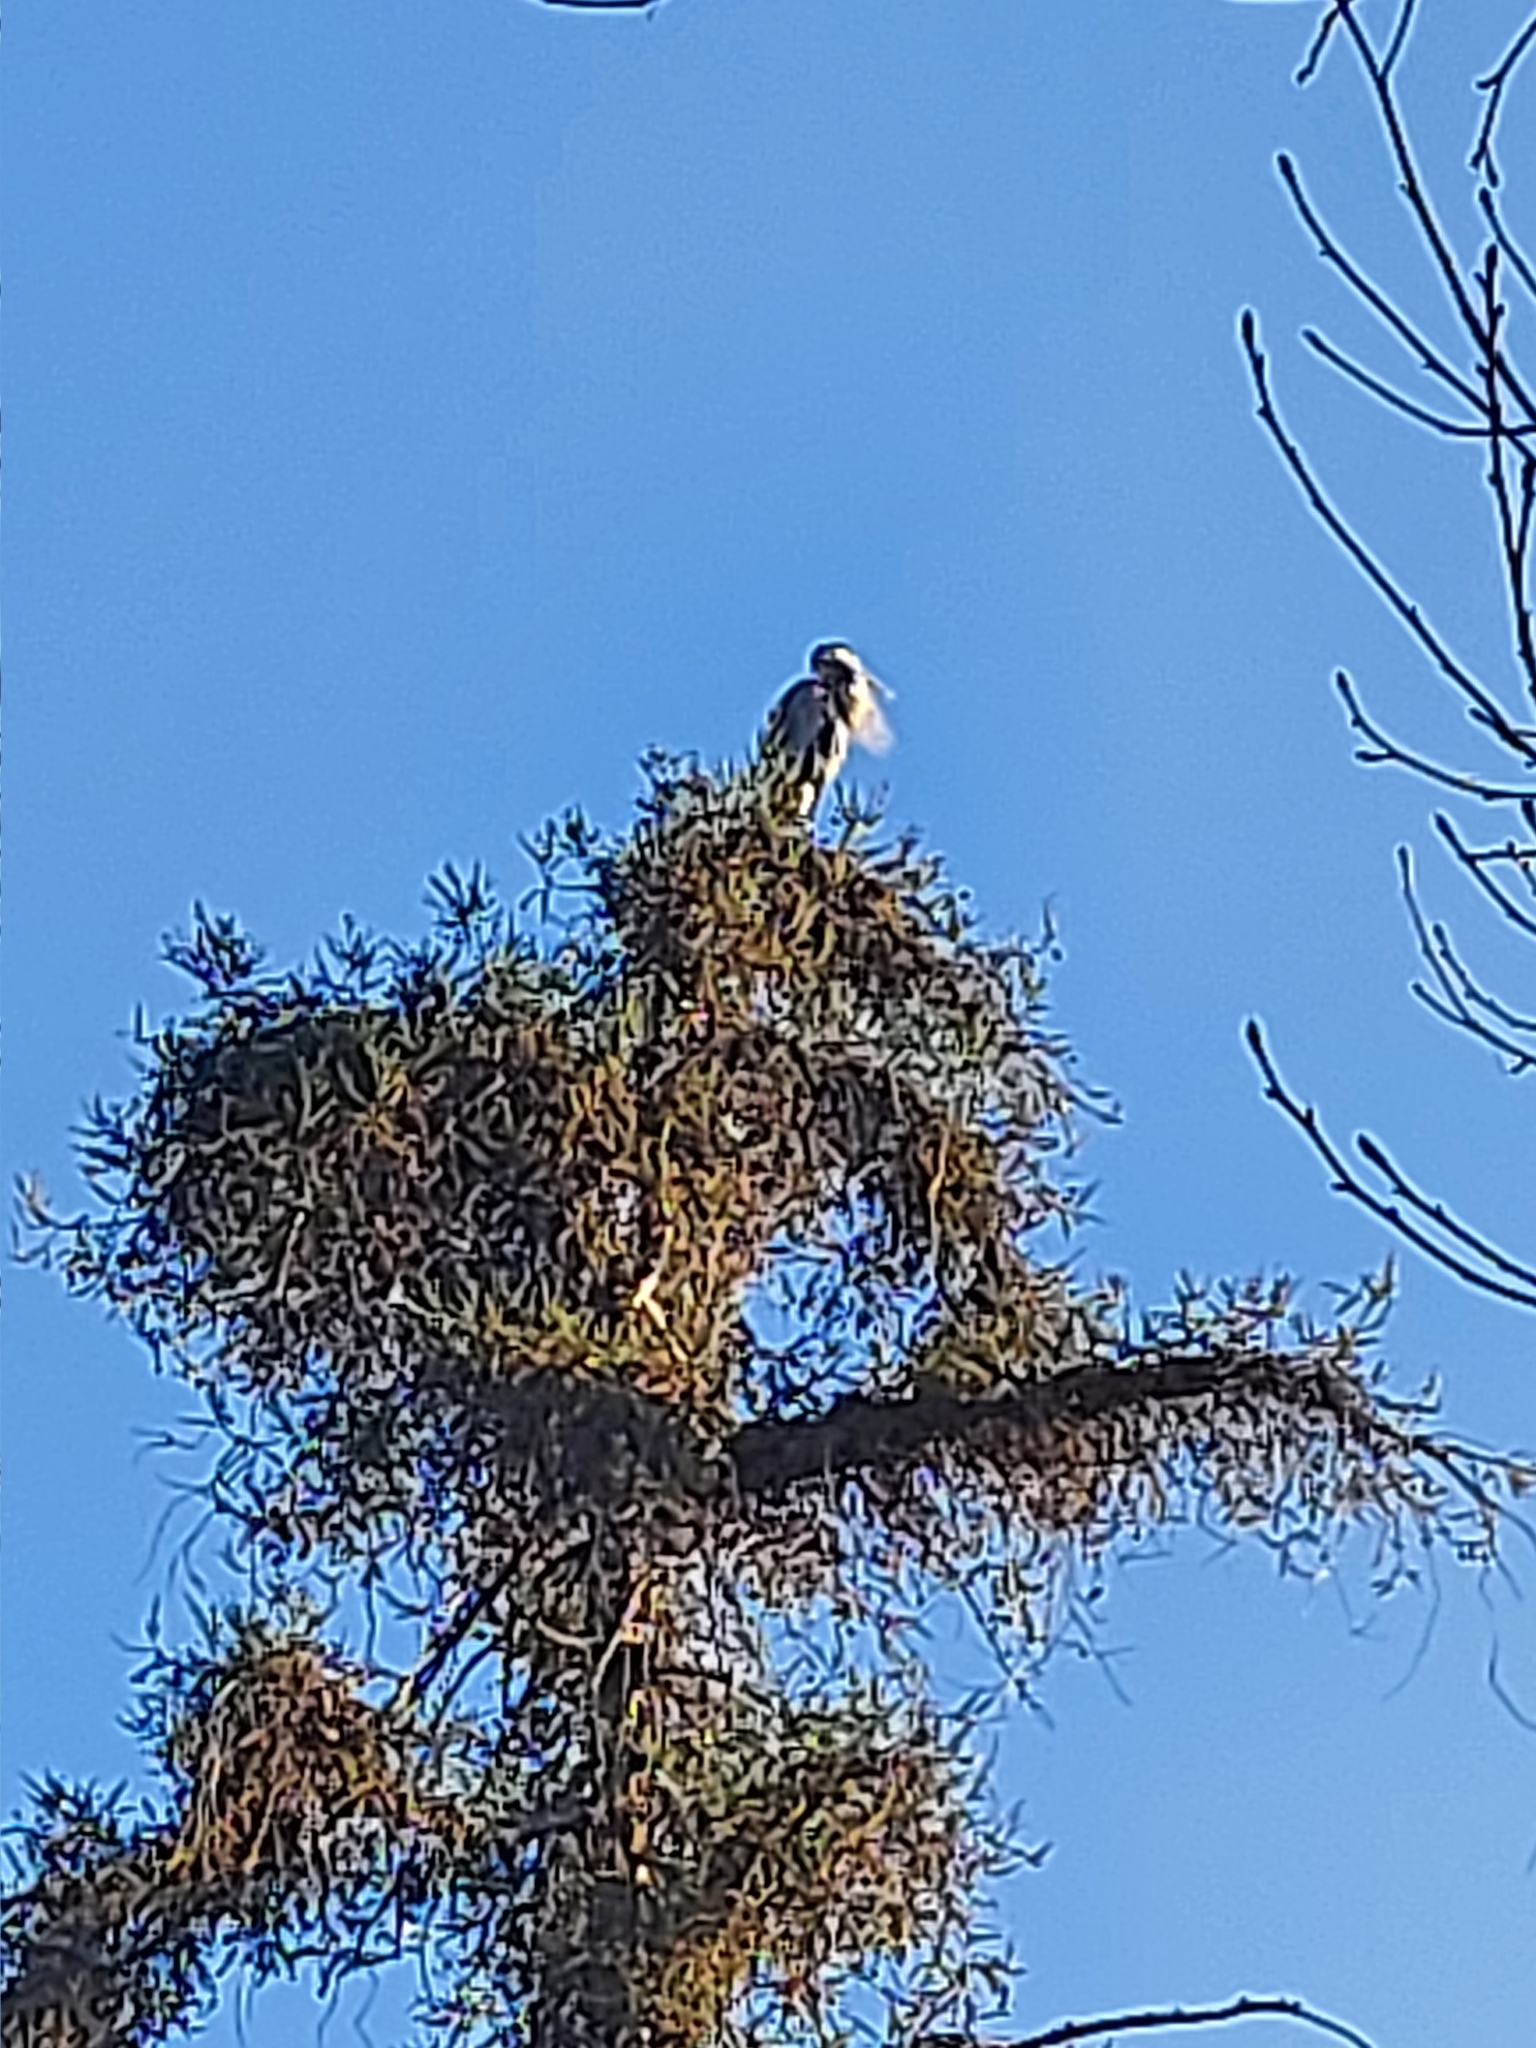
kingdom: Animalia
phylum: Chordata
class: Aves
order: Pelecaniformes
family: Ardeidae
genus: Ardea
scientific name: Ardea herodias
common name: Great blue heron
